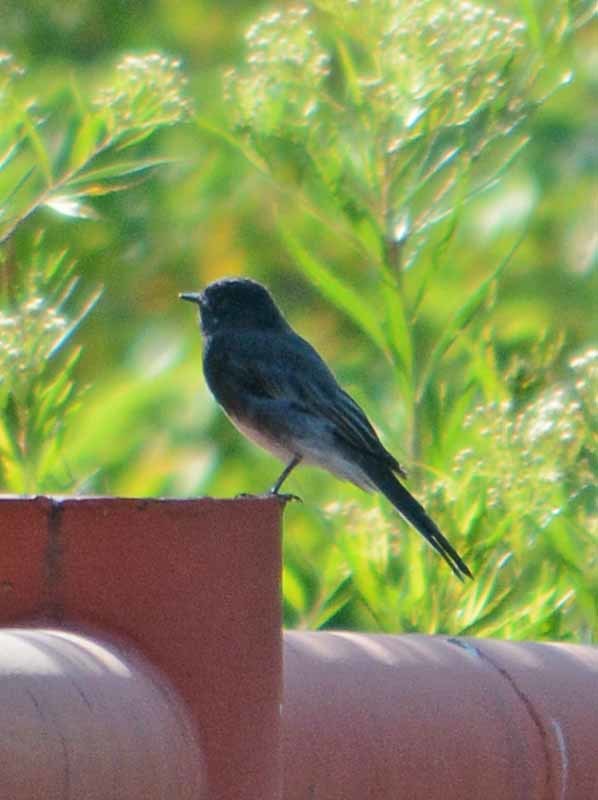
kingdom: Animalia
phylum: Chordata
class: Aves
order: Passeriformes
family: Tyrannidae
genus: Sayornis
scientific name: Sayornis nigricans
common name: Black phoebe
